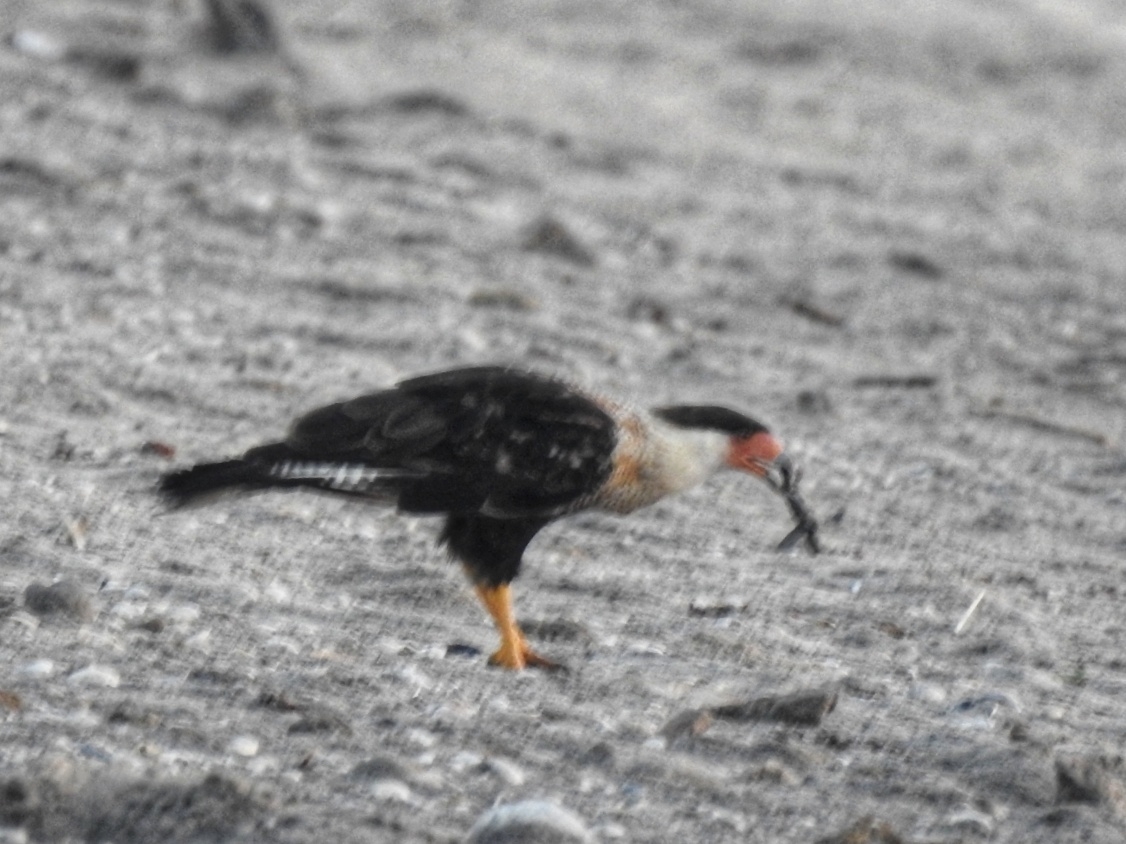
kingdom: Animalia
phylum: Chordata
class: Aves
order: Falconiformes
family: Falconidae
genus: Caracara
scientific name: Caracara plancus
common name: Southern caracara
